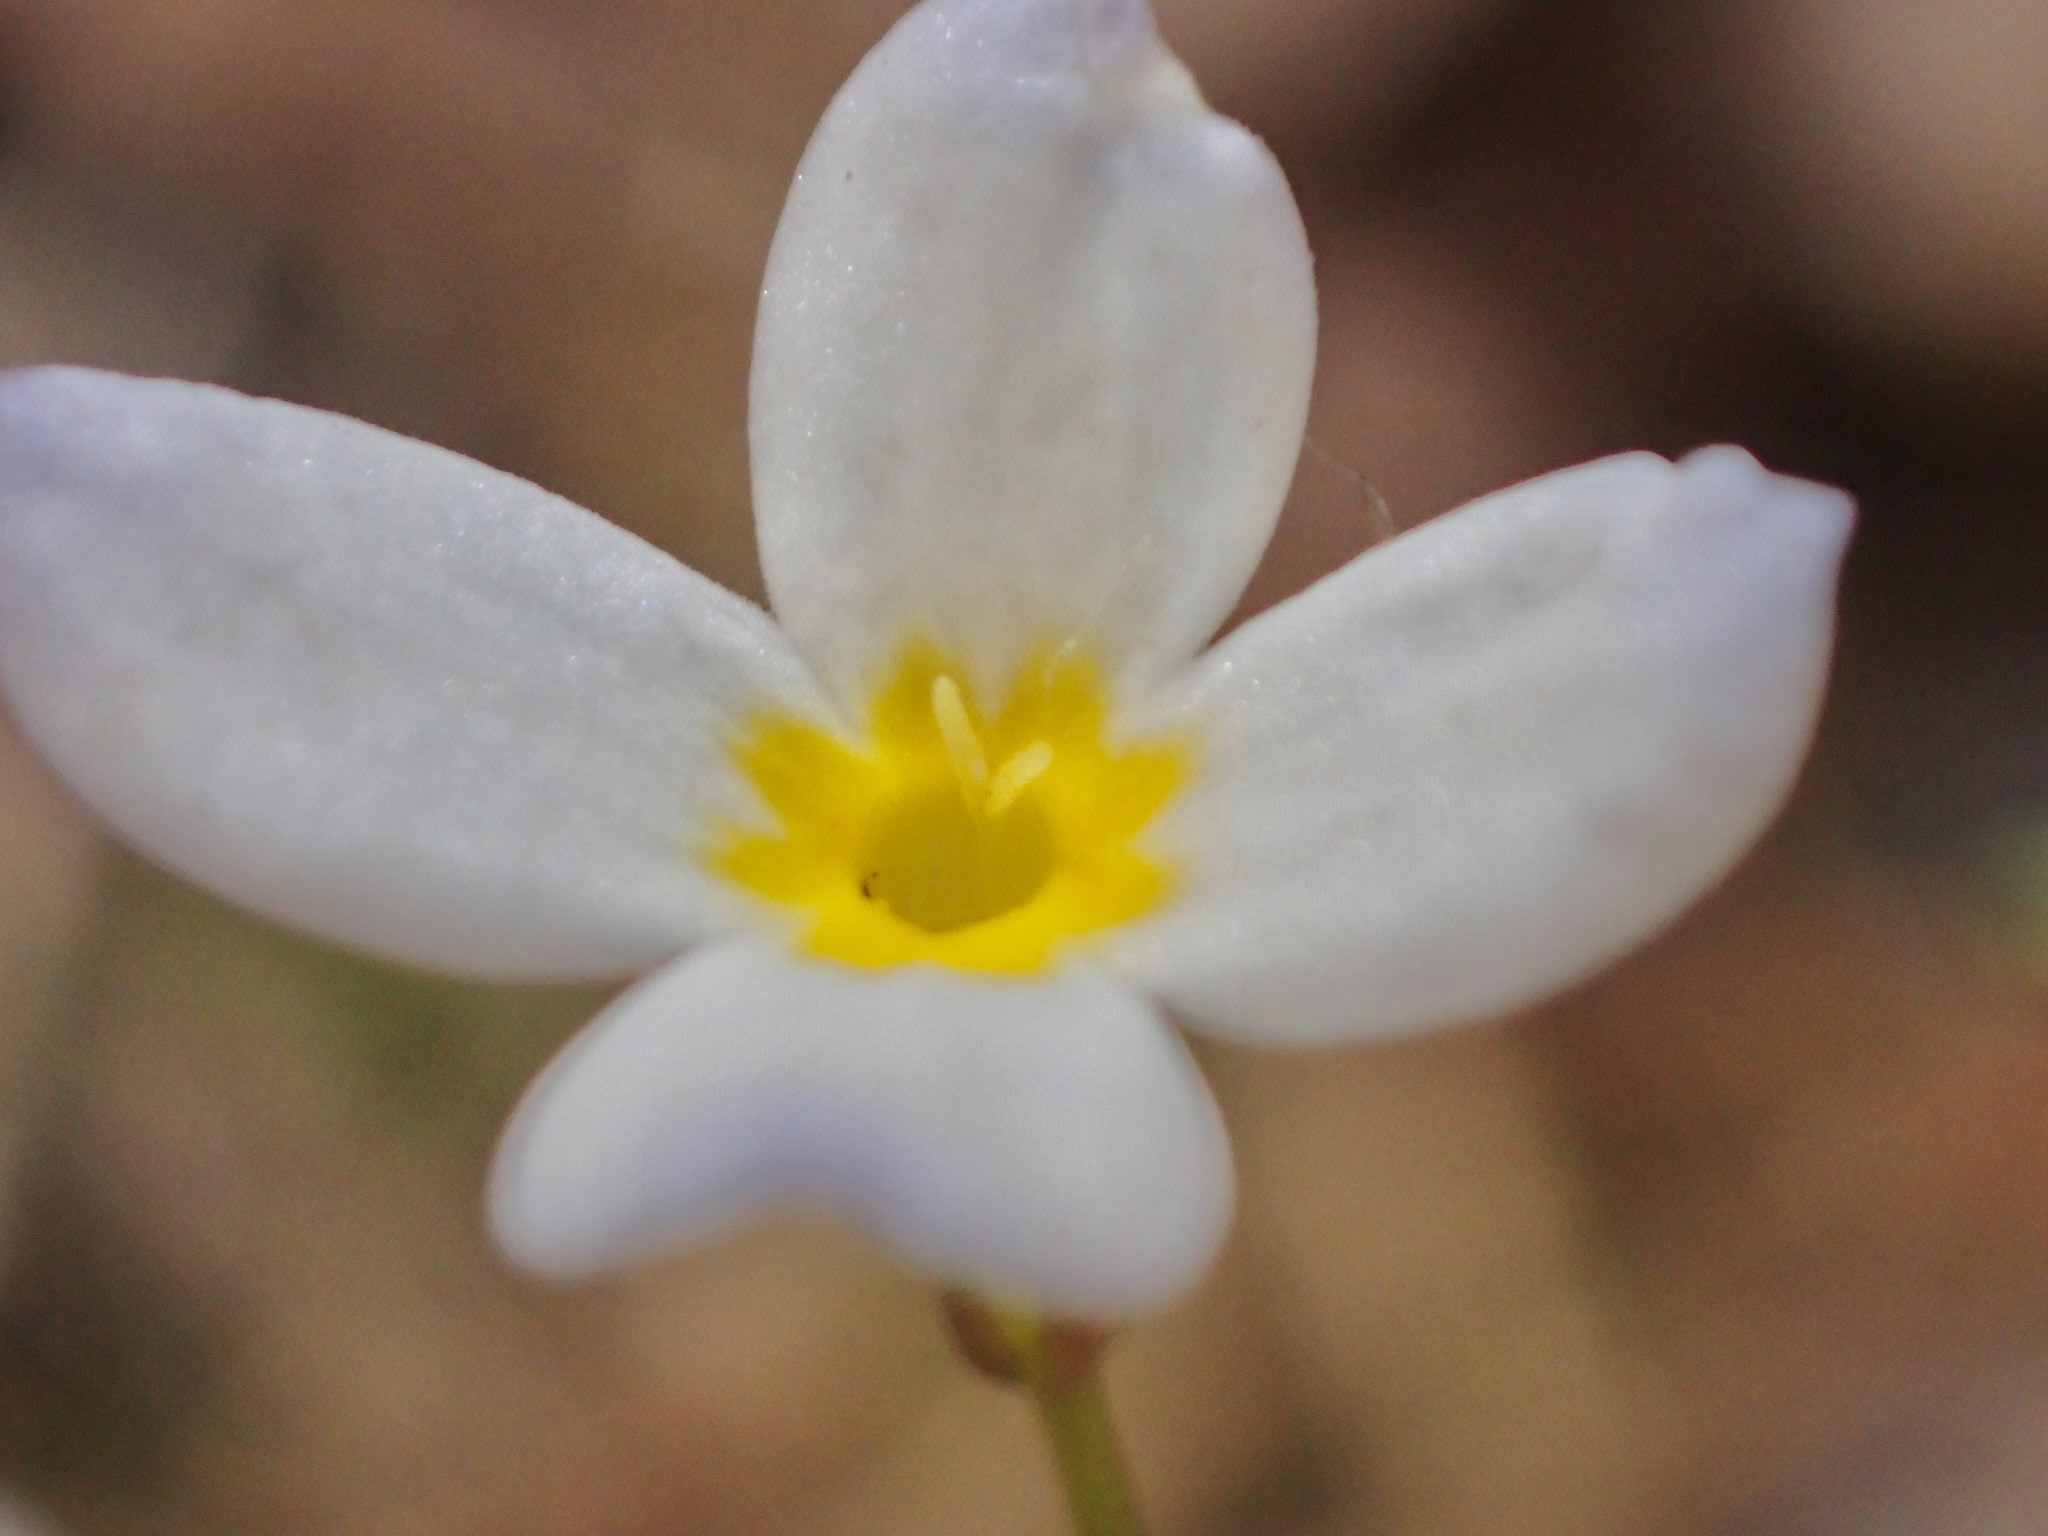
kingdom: Plantae
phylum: Tracheophyta
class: Magnoliopsida
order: Gentianales
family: Rubiaceae
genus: Houstonia
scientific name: Houstonia caerulea
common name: Bluets
